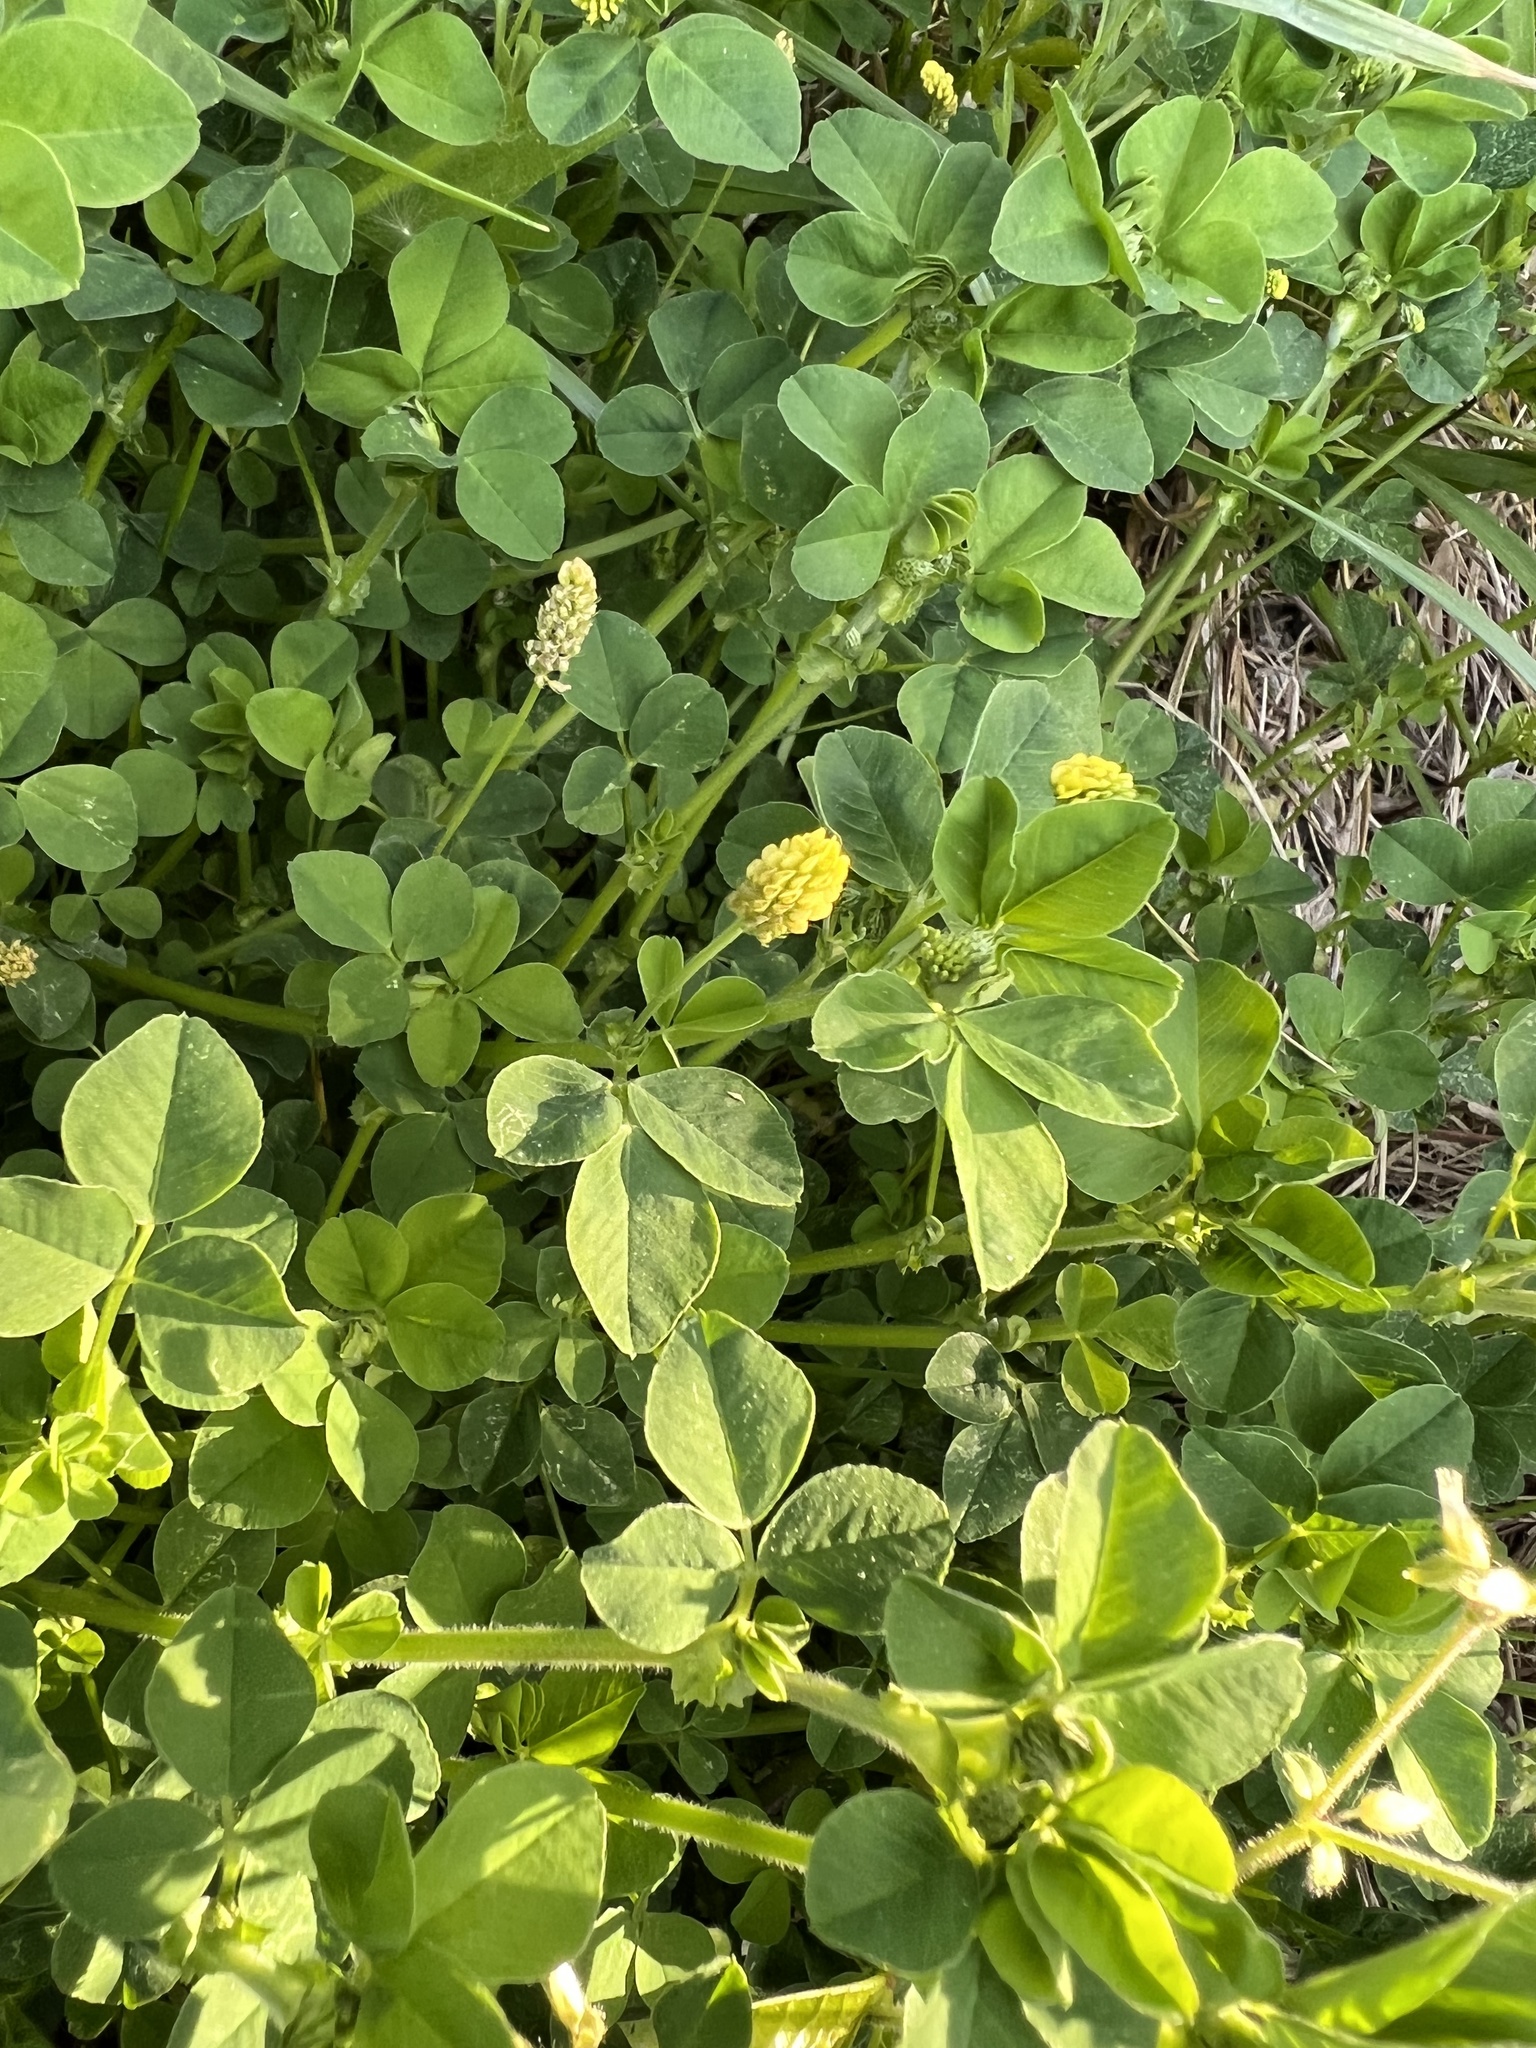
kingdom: Plantae
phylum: Tracheophyta
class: Magnoliopsida
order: Fabales
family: Fabaceae
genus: Medicago
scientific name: Medicago lupulina
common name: Black medick
